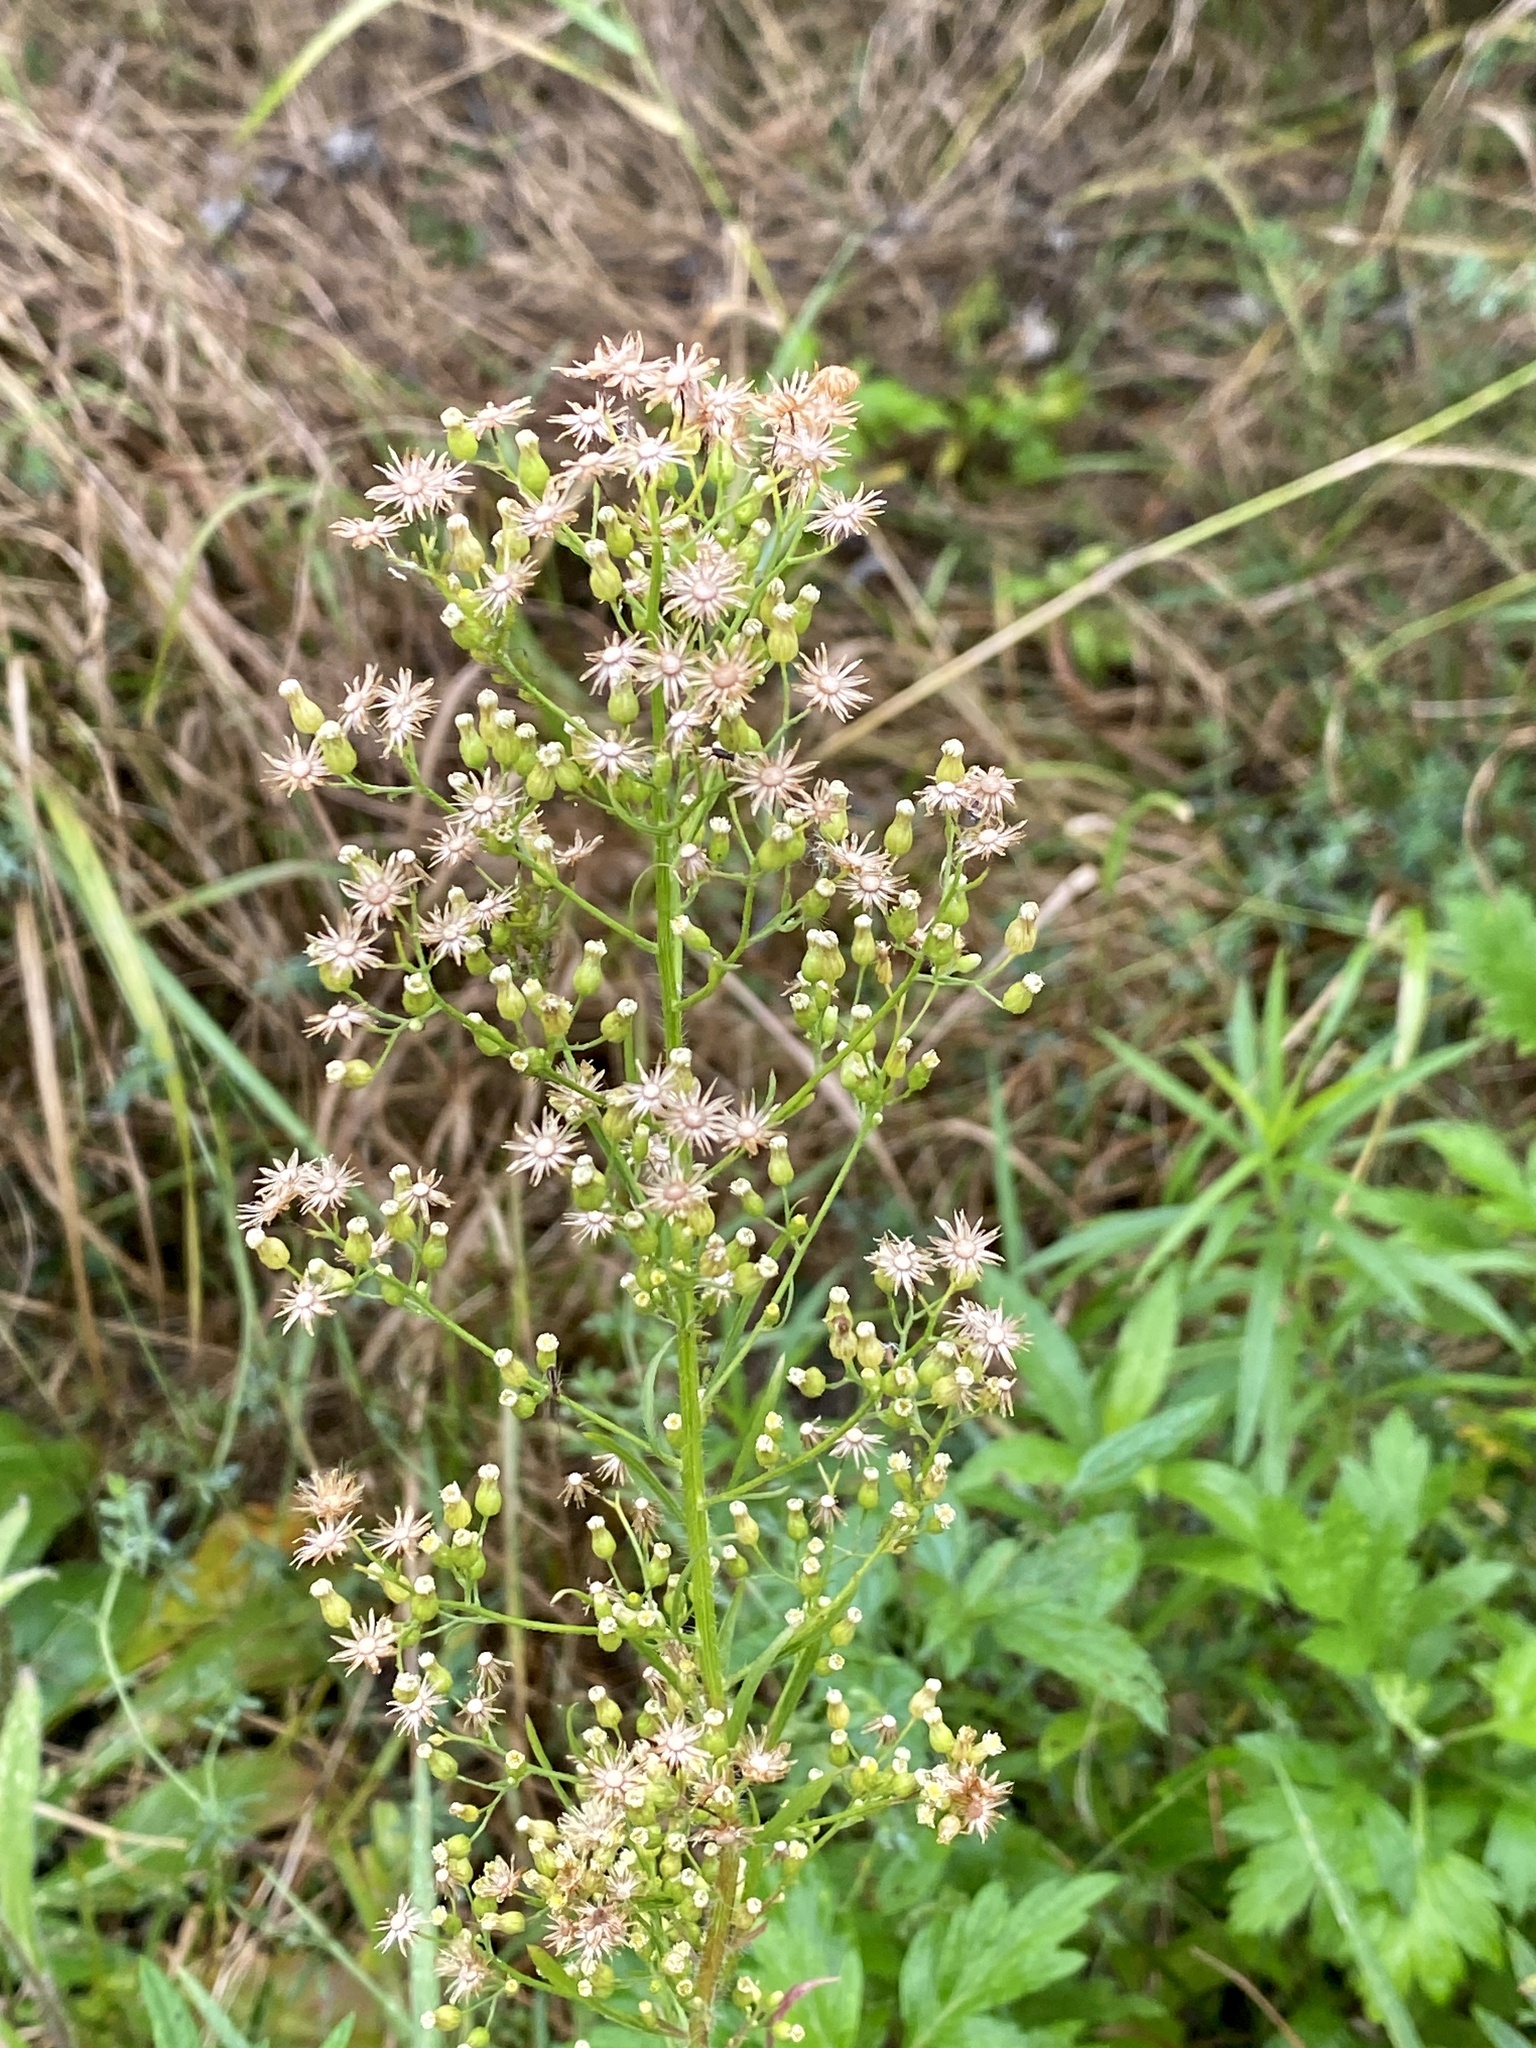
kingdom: Plantae
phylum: Tracheophyta
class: Magnoliopsida
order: Asterales
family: Asteraceae
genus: Erigeron
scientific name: Erigeron canadensis
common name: Canadian fleabane
